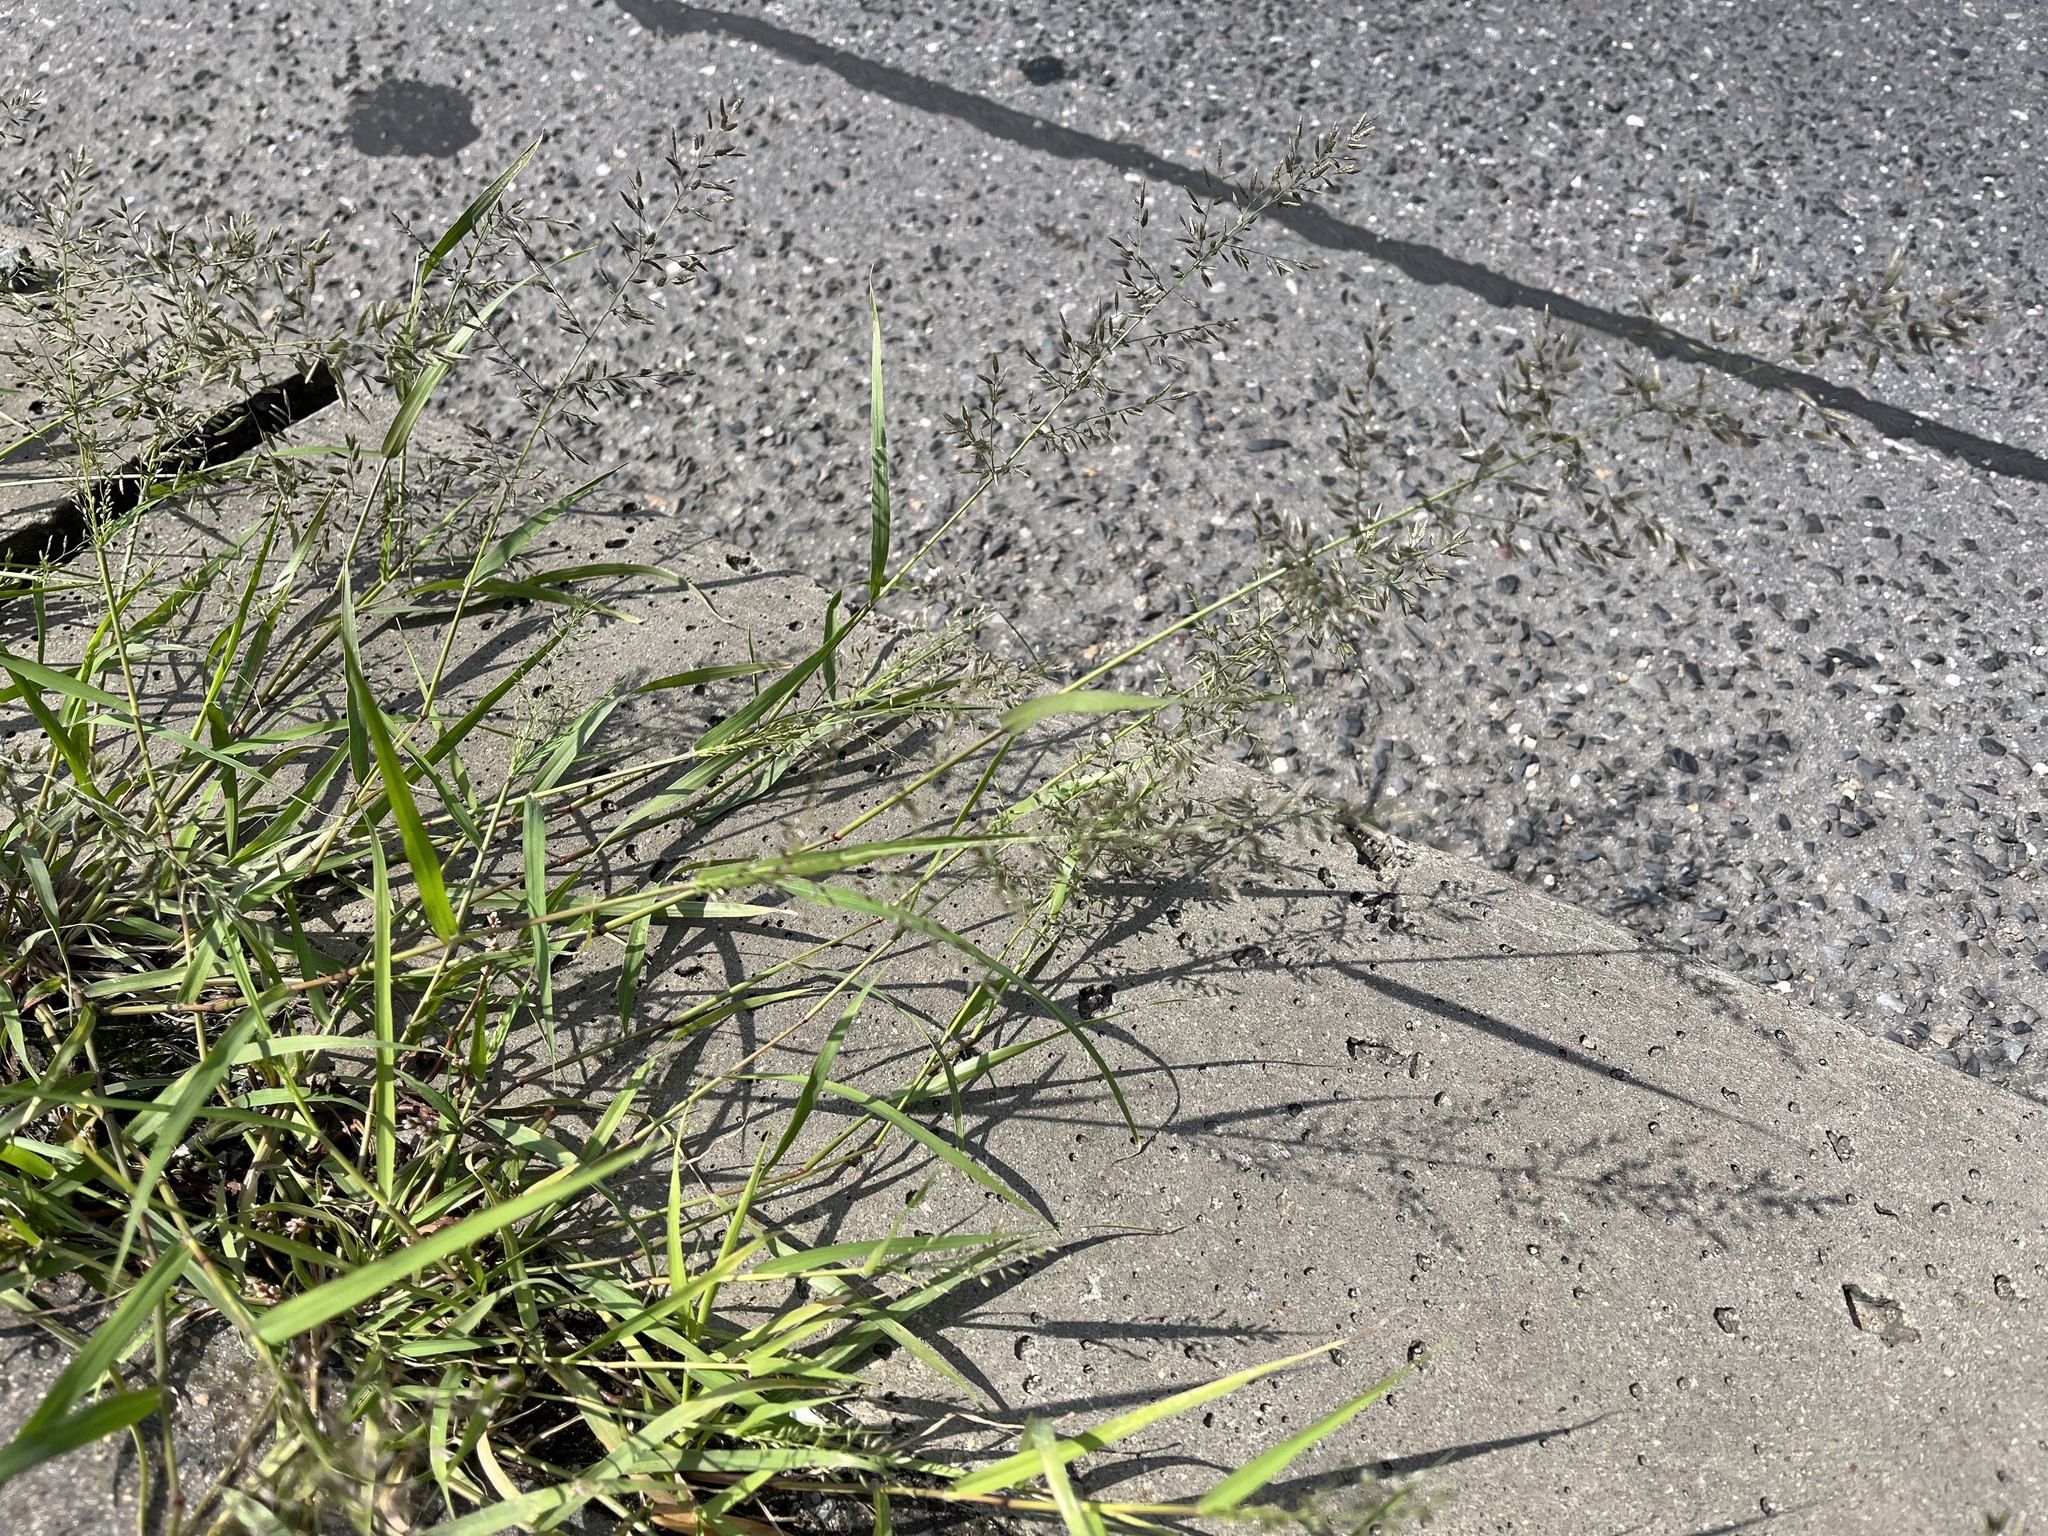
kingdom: Plantae
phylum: Tracheophyta
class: Liliopsida
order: Poales
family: Poaceae
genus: Eragrostis
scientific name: Eragrostis minor
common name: Small love-grass
